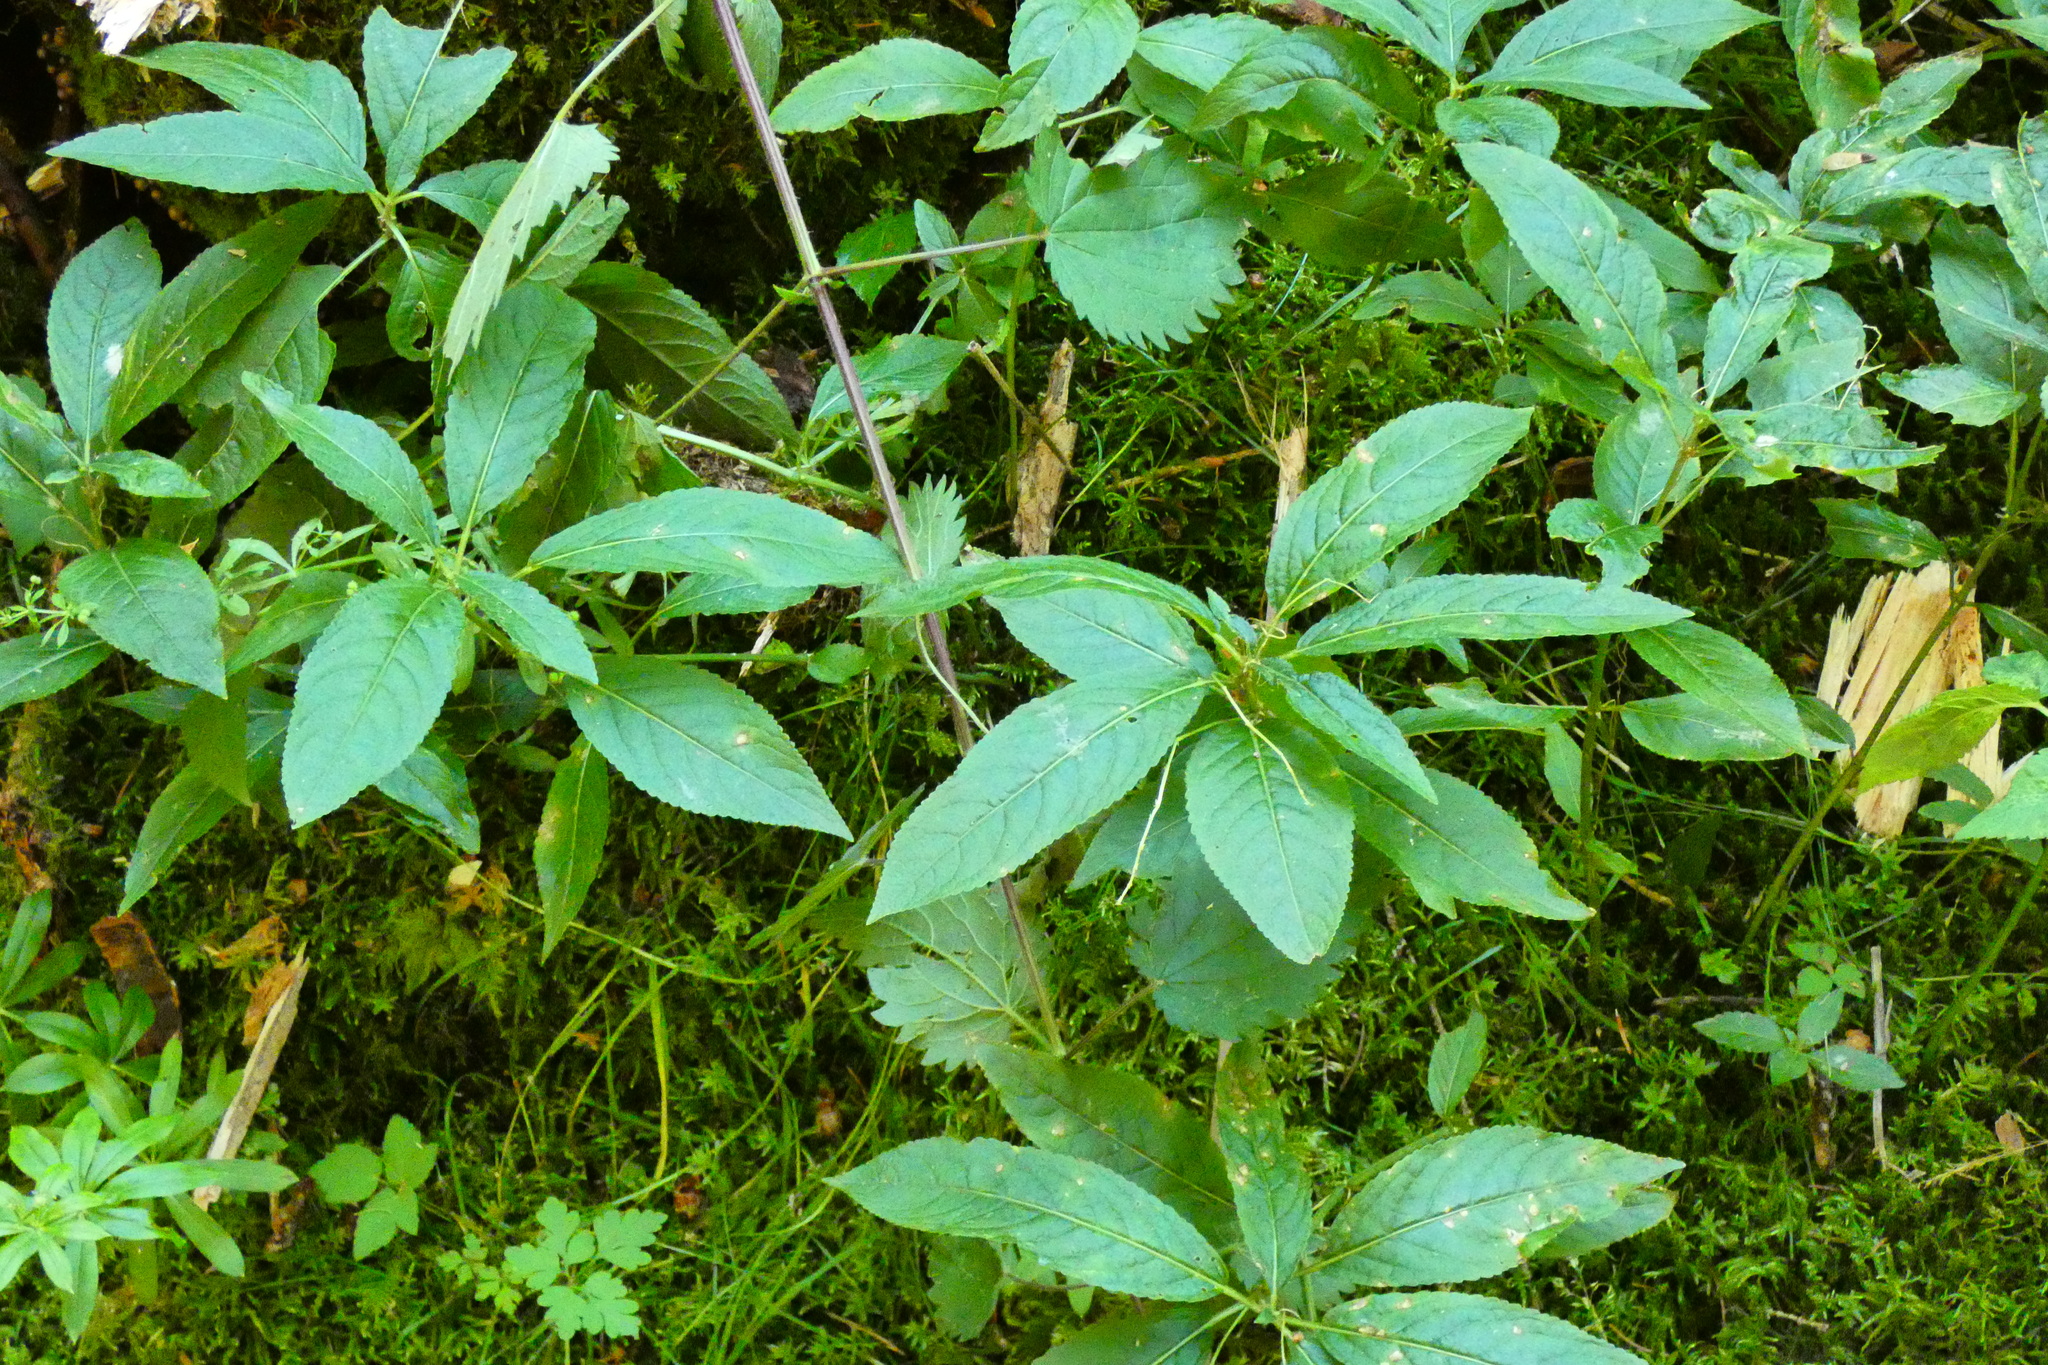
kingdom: Plantae
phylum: Tracheophyta
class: Magnoliopsida
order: Malpighiales
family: Euphorbiaceae
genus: Mercurialis
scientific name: Mercurialis perennis
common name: Dog mercury
